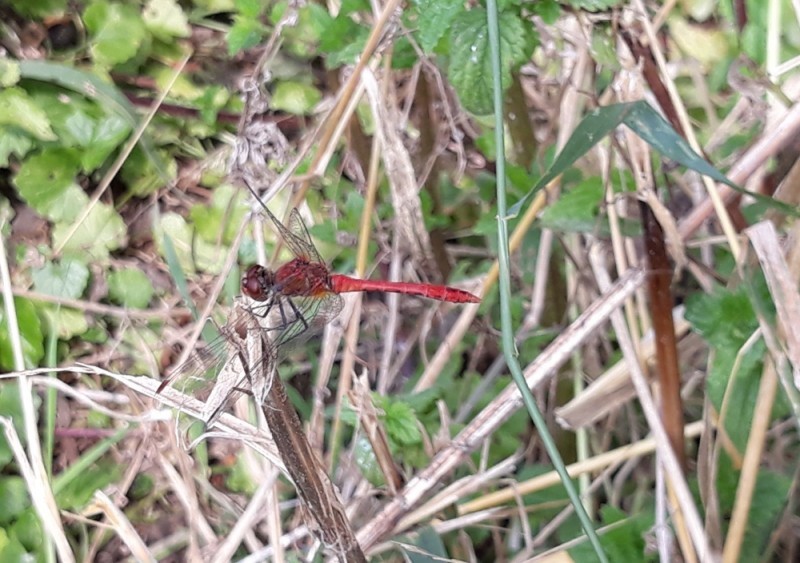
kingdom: Animalia
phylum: Arthropoda
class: Insecta
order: Odonata
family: Libellulidae
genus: Sympetrum
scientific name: Sympetrum sanguineum
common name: Ruddy darter
